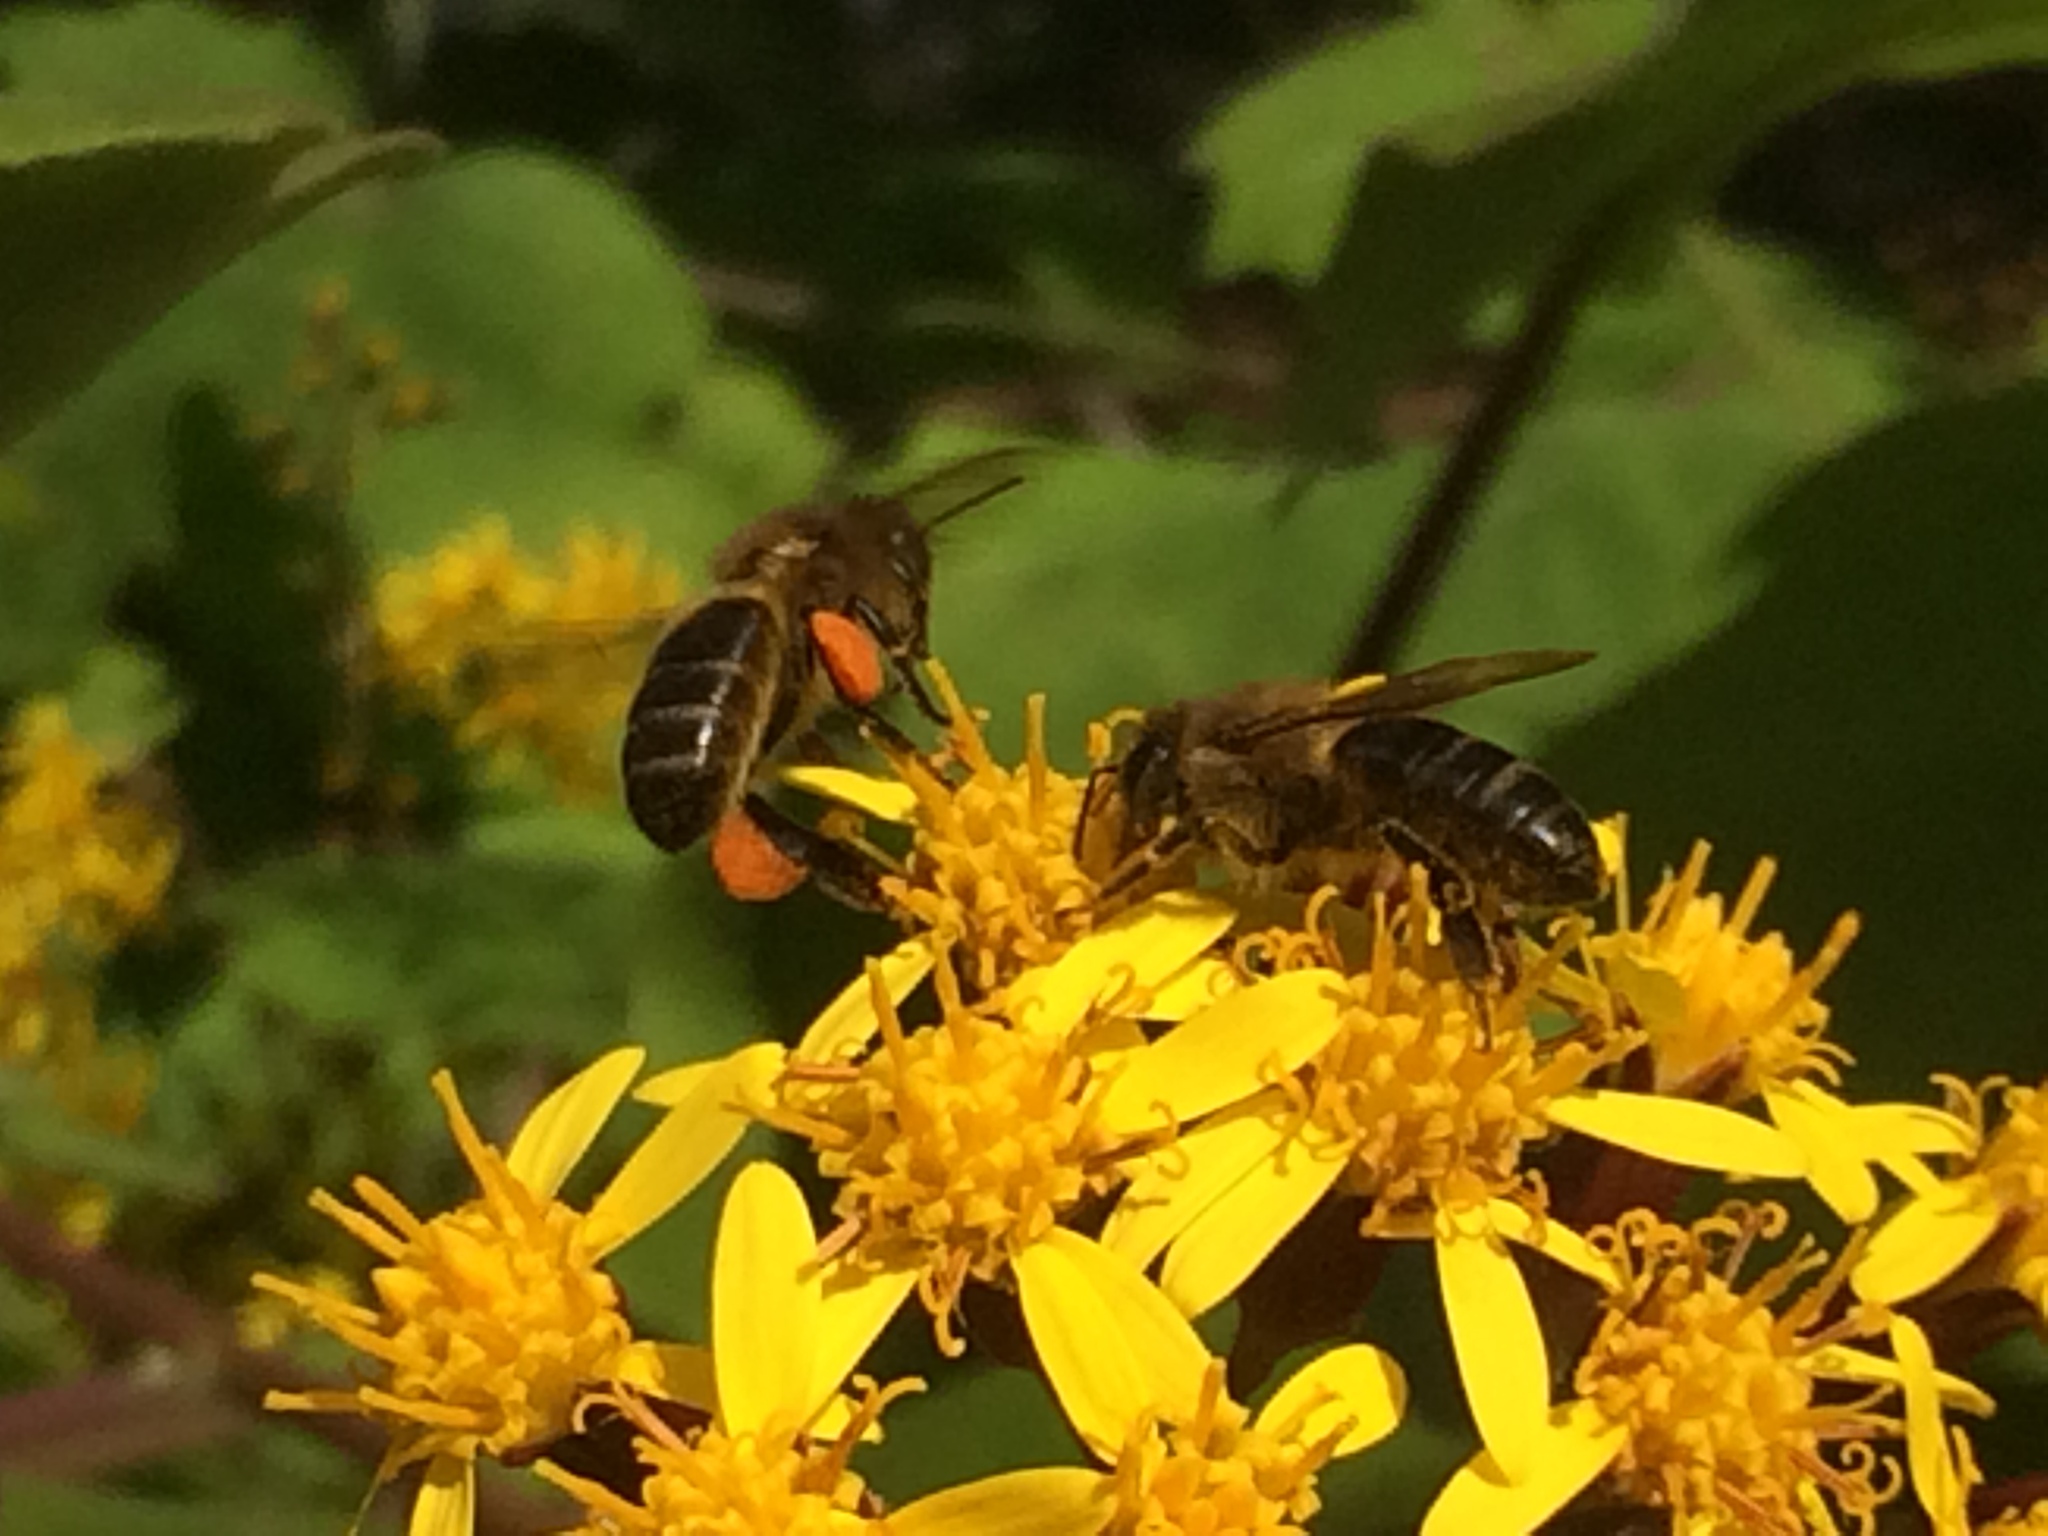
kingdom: Animalia
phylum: Arthropoda
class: Insecta
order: Hymenoptera
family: Apidae
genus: Apis
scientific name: Apis mellifera
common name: Honey bee
